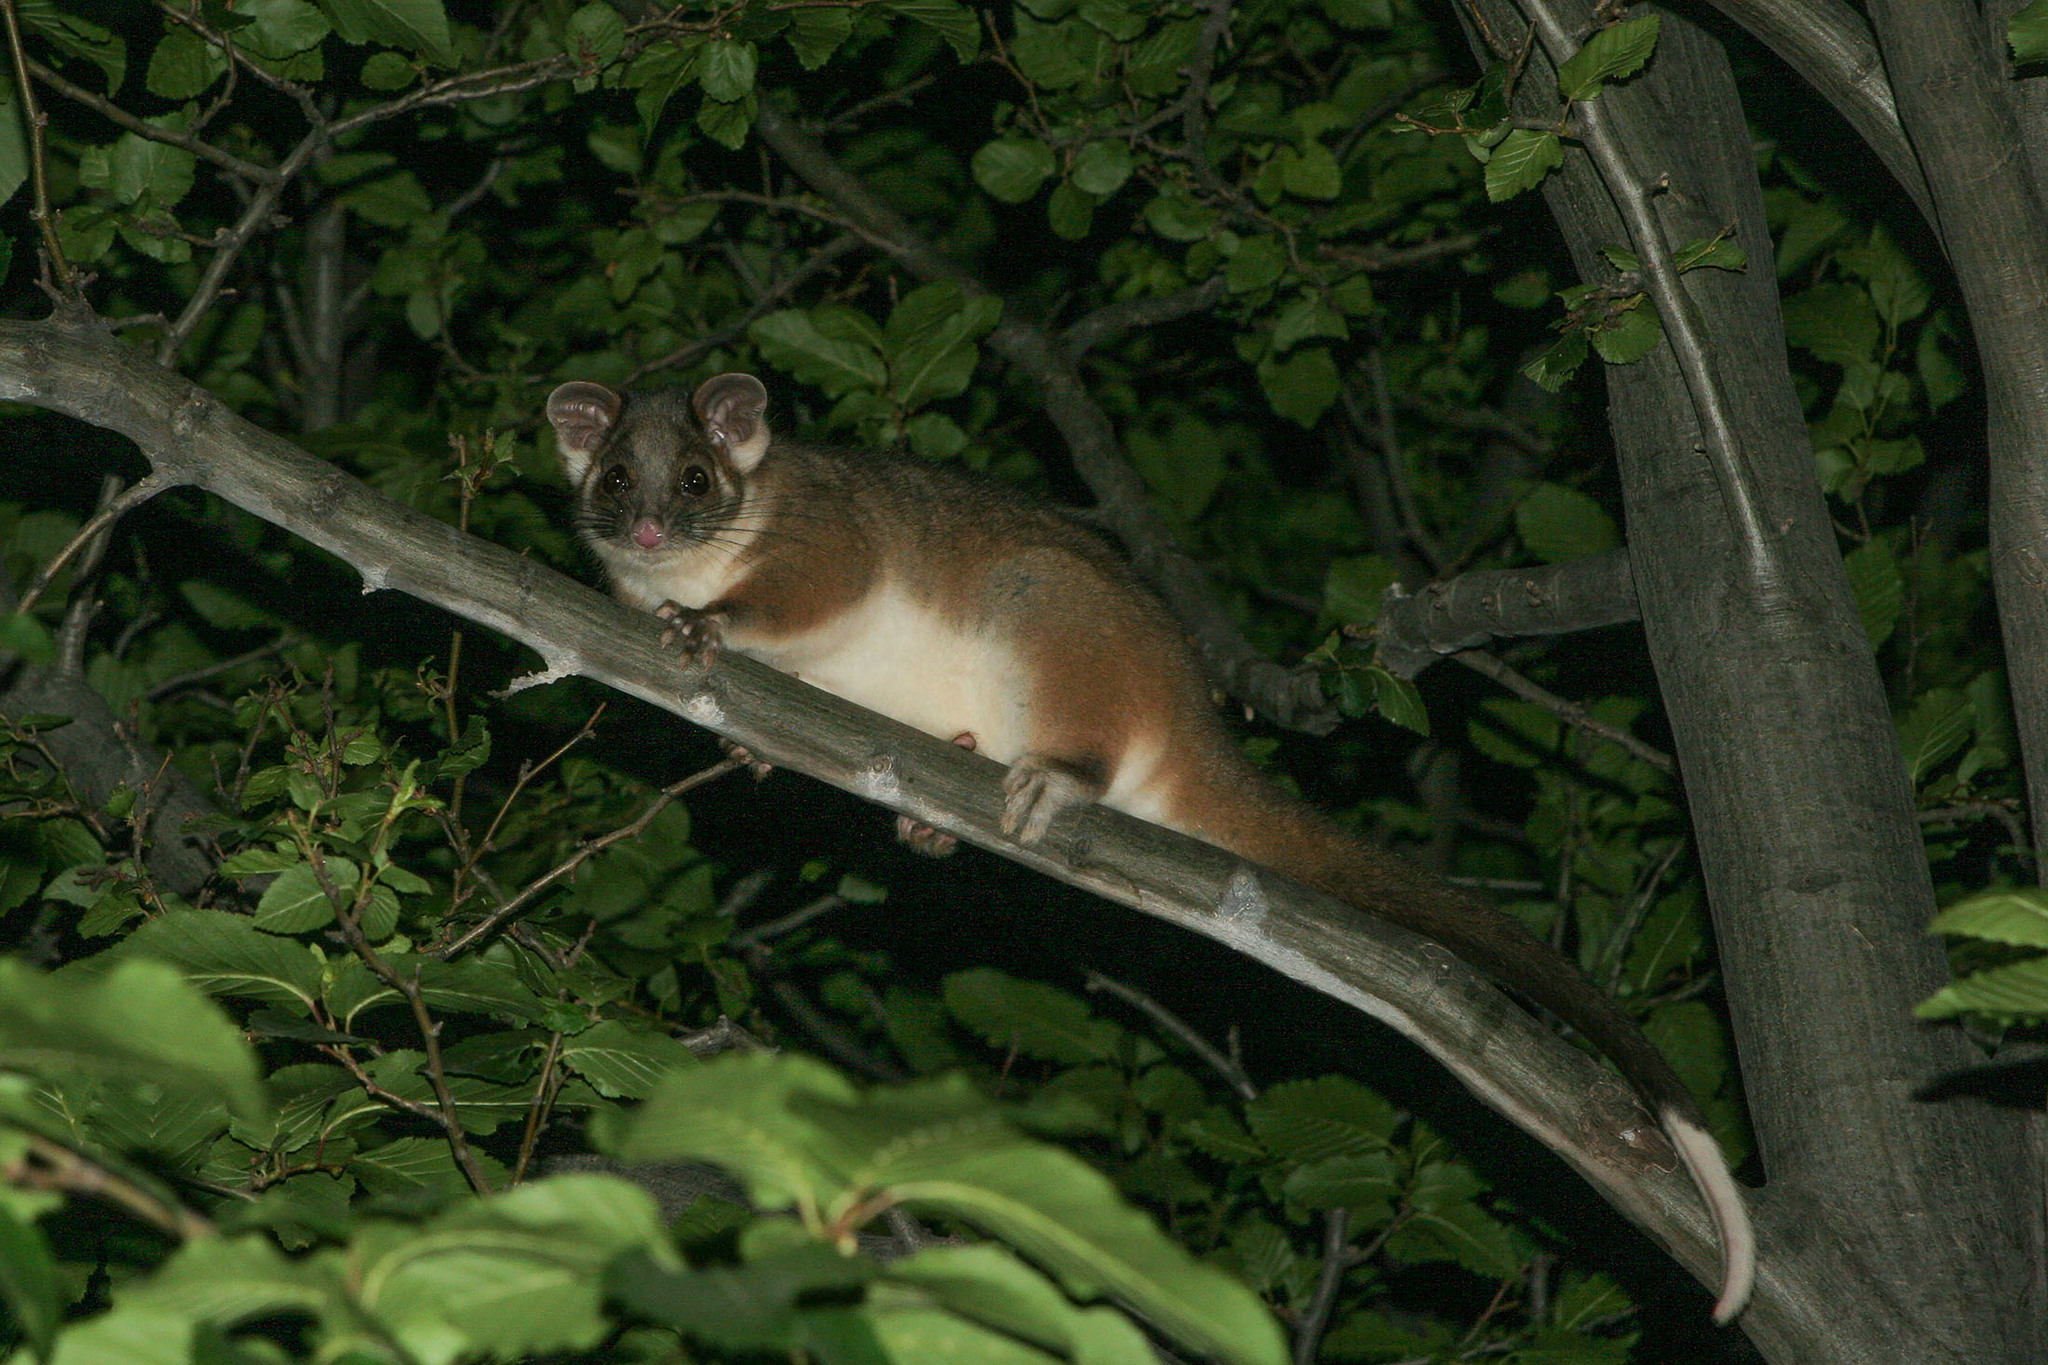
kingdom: Animalia
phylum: Chordata
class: Mammalia
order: Diprotodontia
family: Pseudocheiridae
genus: Pseudocheirus
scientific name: Pseudocheirus peregrinus
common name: Common ringtail possum
